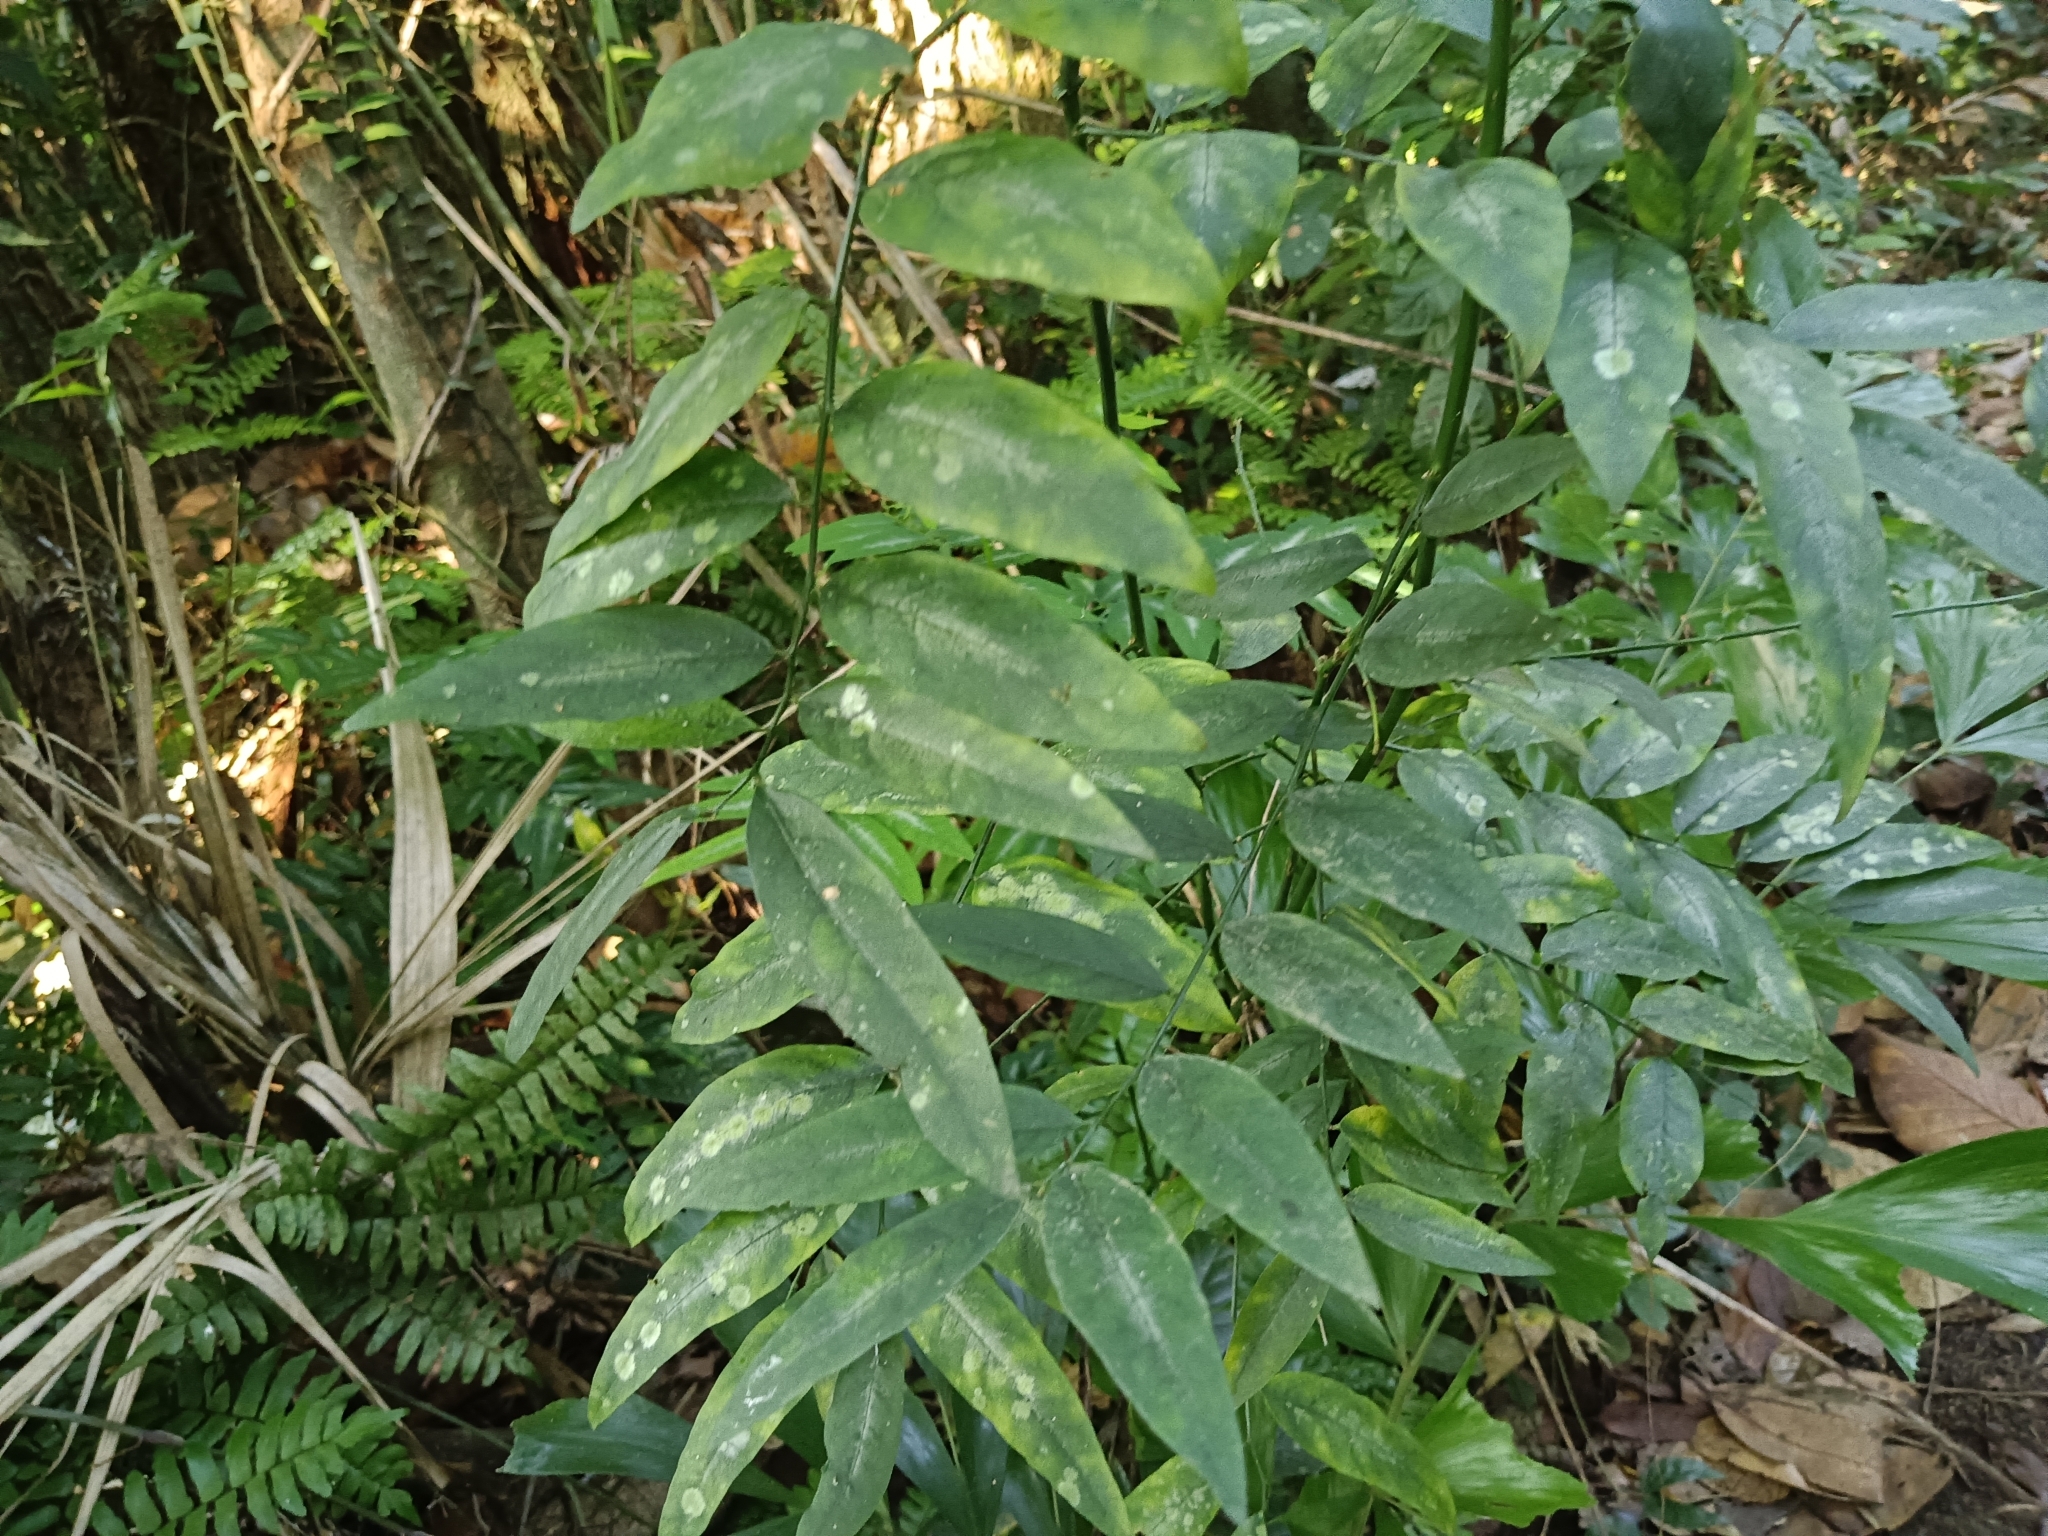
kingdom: Plantae
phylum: Tracheophyta
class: Magnoliopsida
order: Malpighiales
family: Phyllanthaceae
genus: Breynia
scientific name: Breynia androgyna
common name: Star gooseberry
